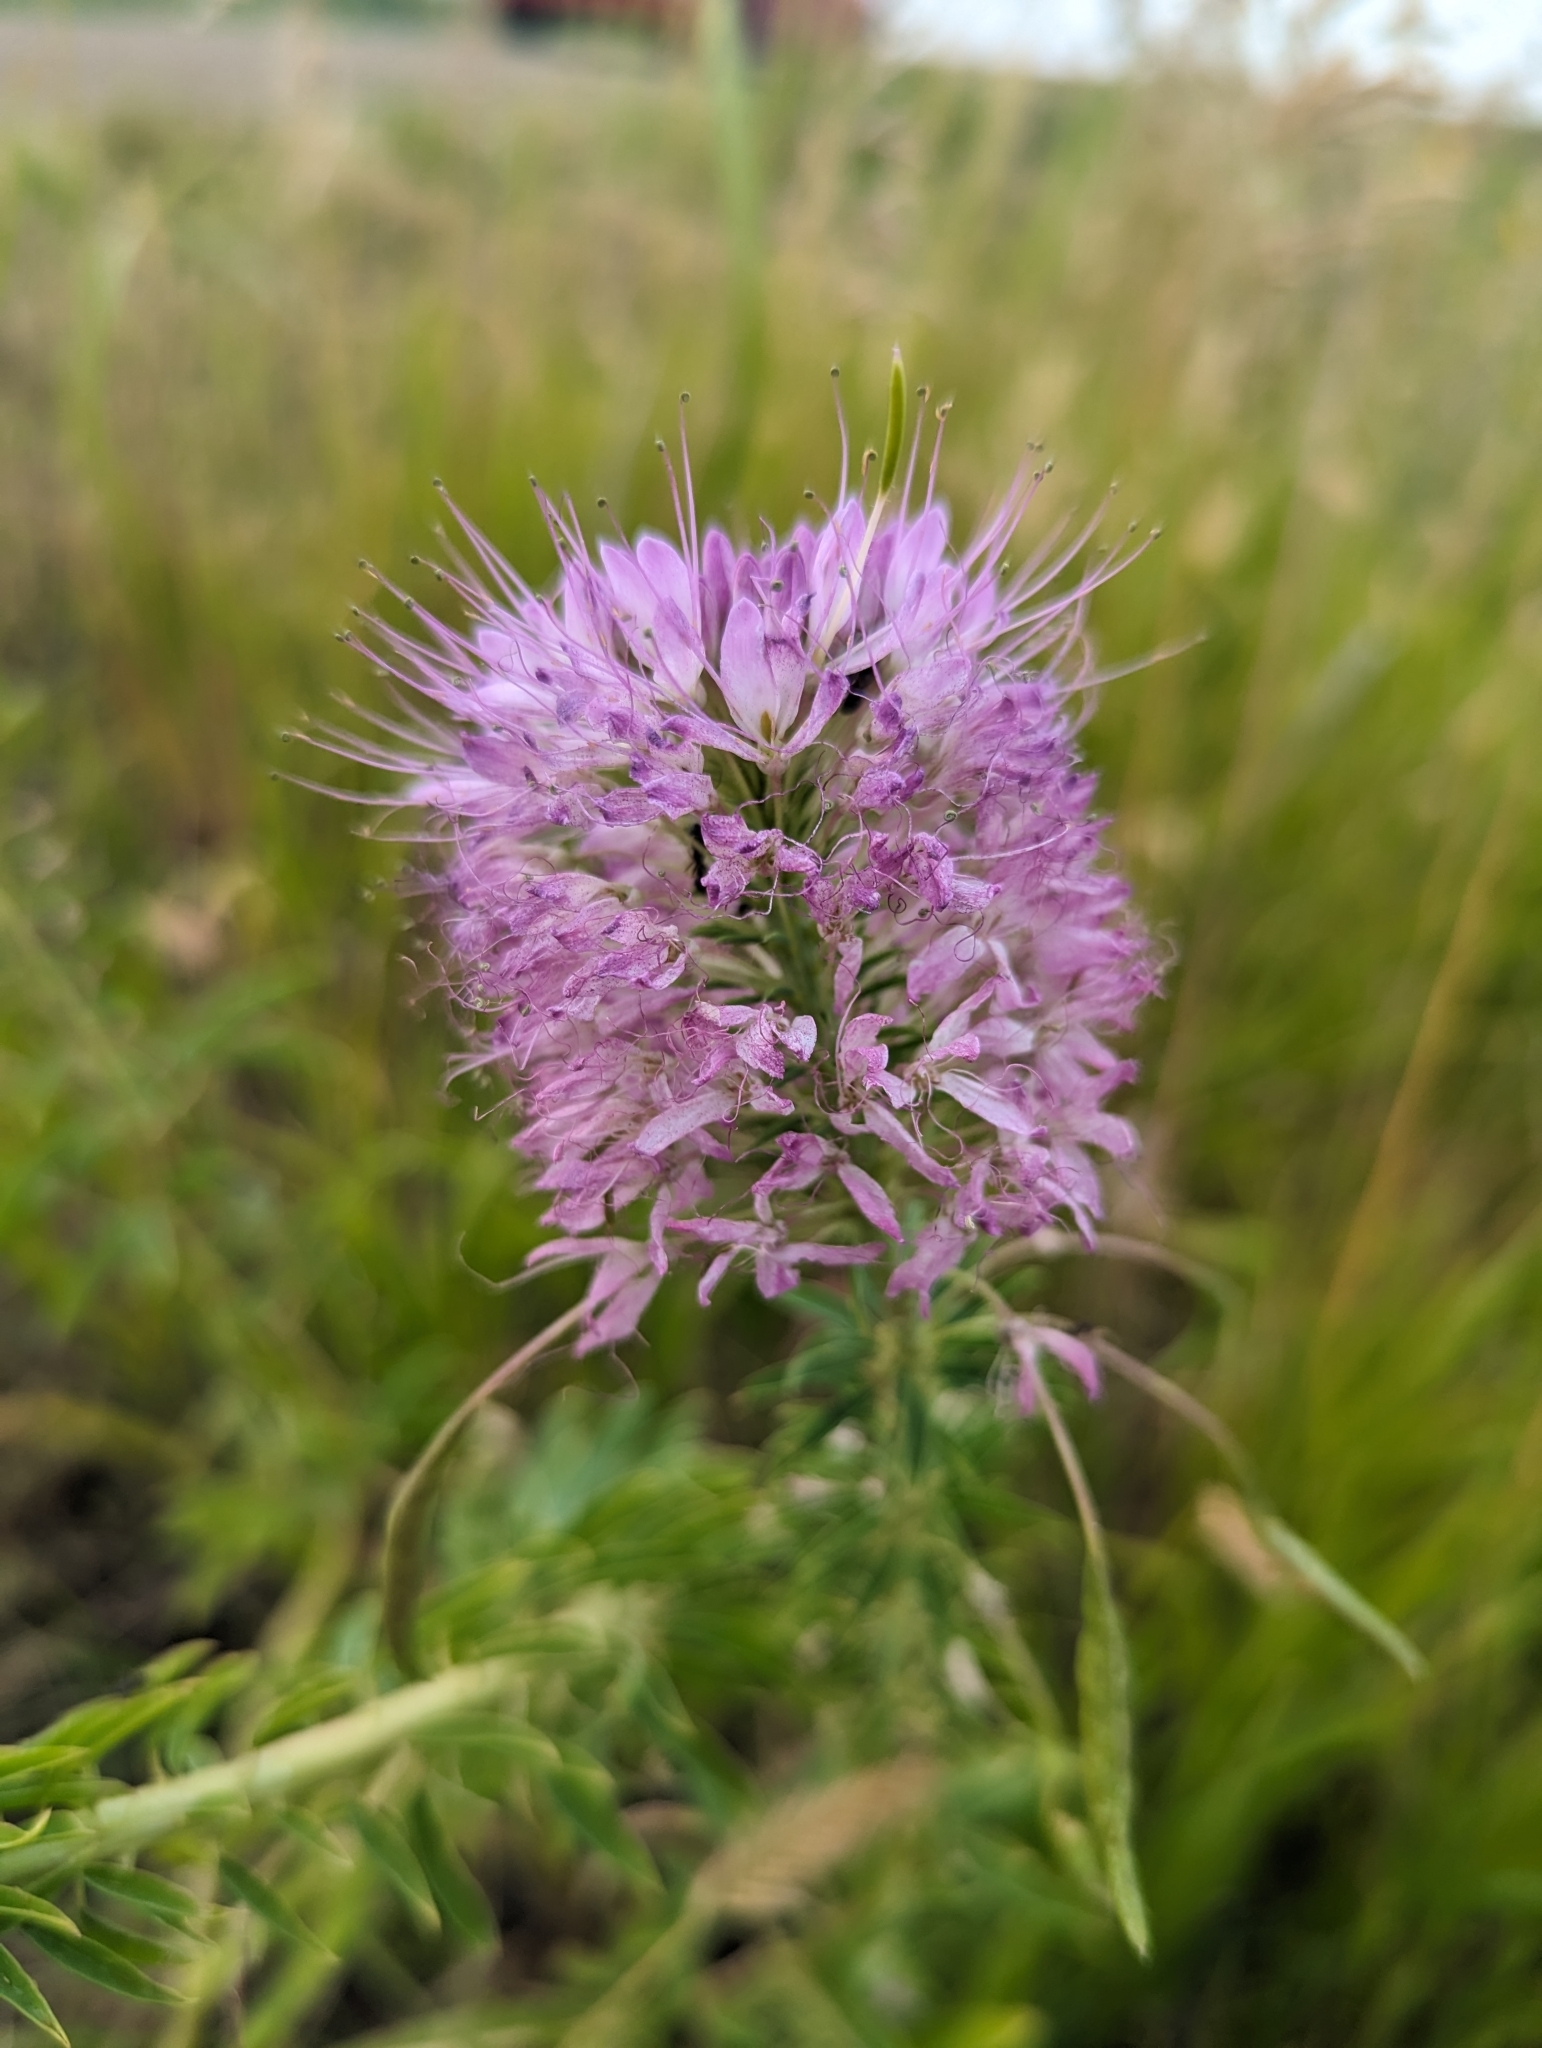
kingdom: Plantae
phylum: Tracheophyta
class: Magnoliopsida
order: Brassicales
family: Cleomaceae
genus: Cleomella
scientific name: Cleomella serrulata
